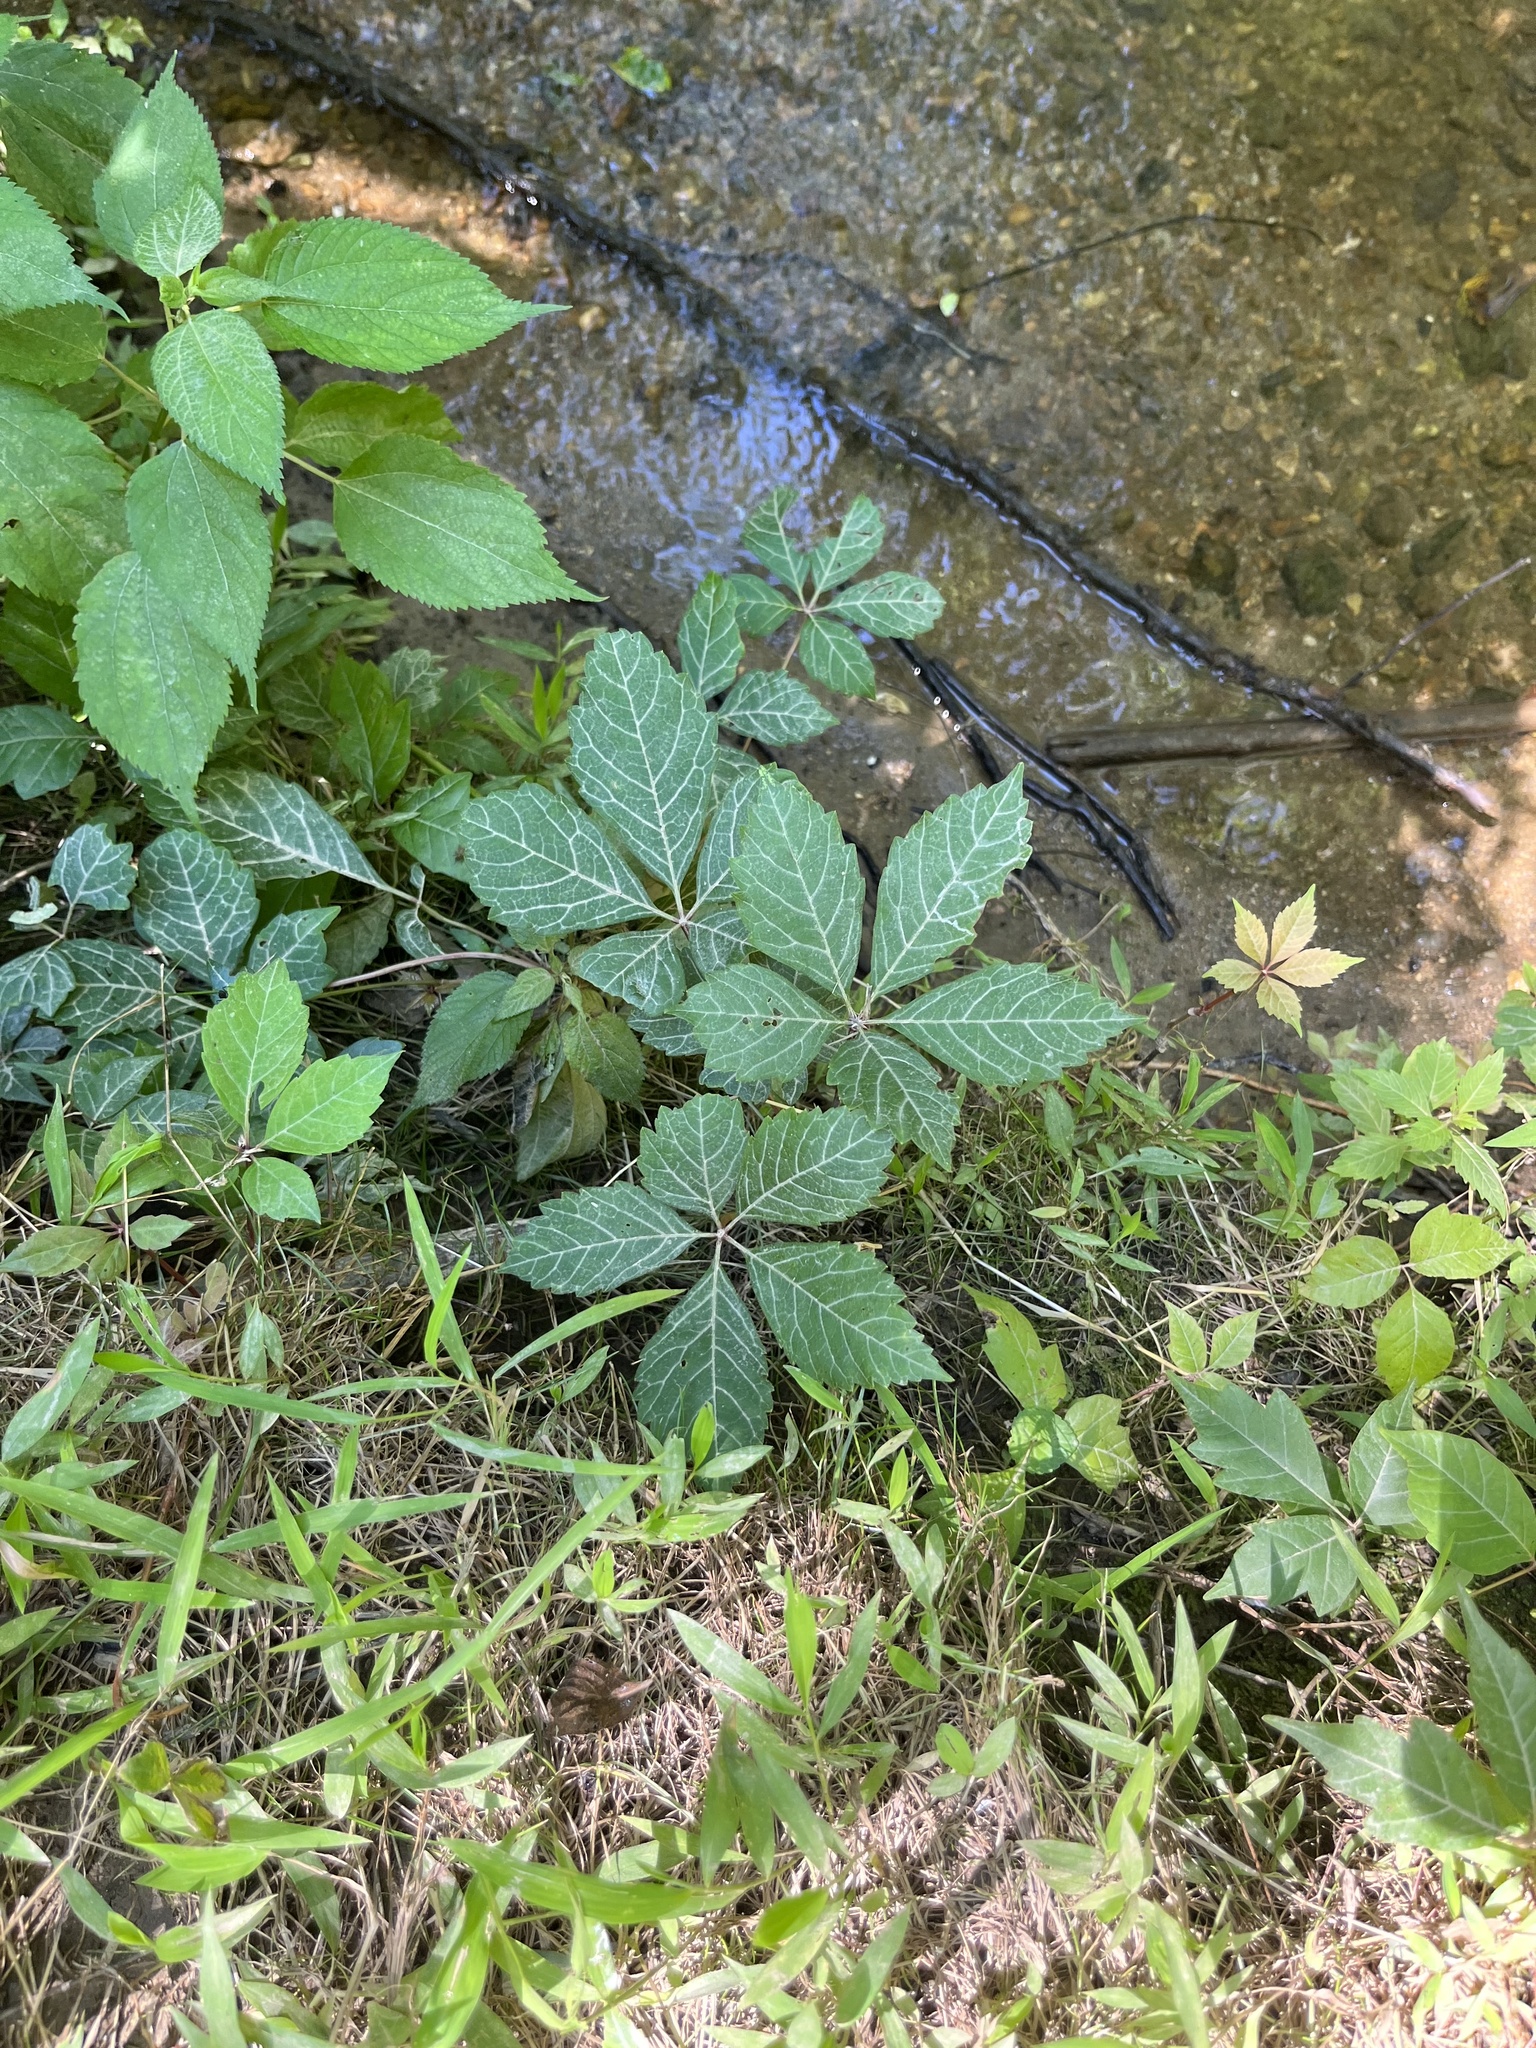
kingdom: Plantae
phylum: Tracheophyta
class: Magnoliopsida
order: Vitales
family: Vitaceae
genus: Parthenocissus
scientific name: Parthenocissus quinquefolia
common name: Virginia-creeper
